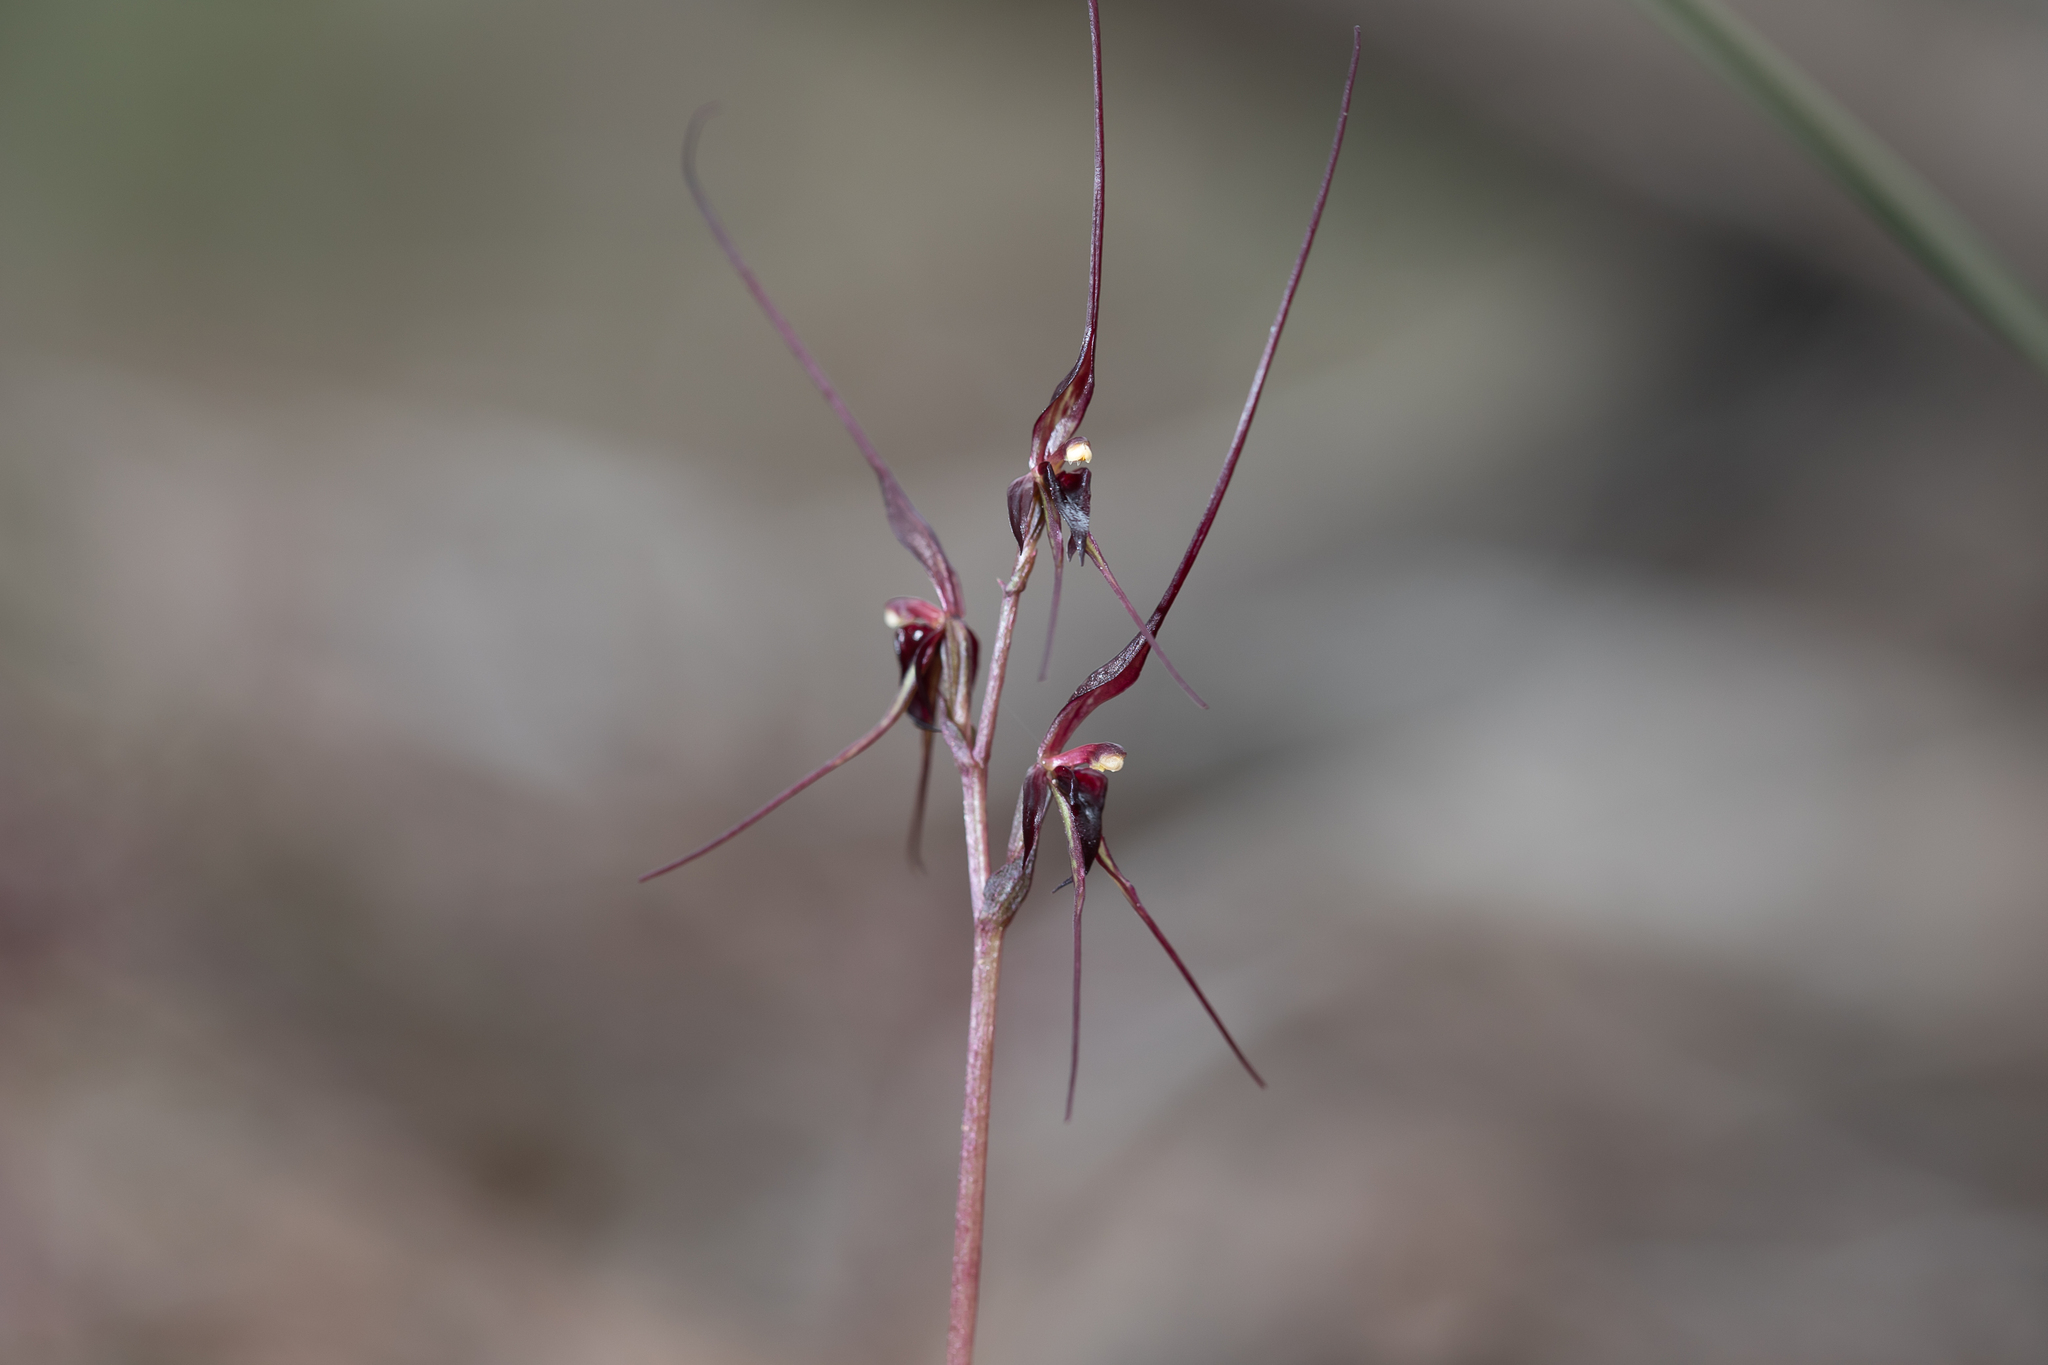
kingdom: Plantae
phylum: Tracheophyta
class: Liliopsida
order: Asparagales
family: Orchidaceae
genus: Acianthus
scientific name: Acianthus caudatus
